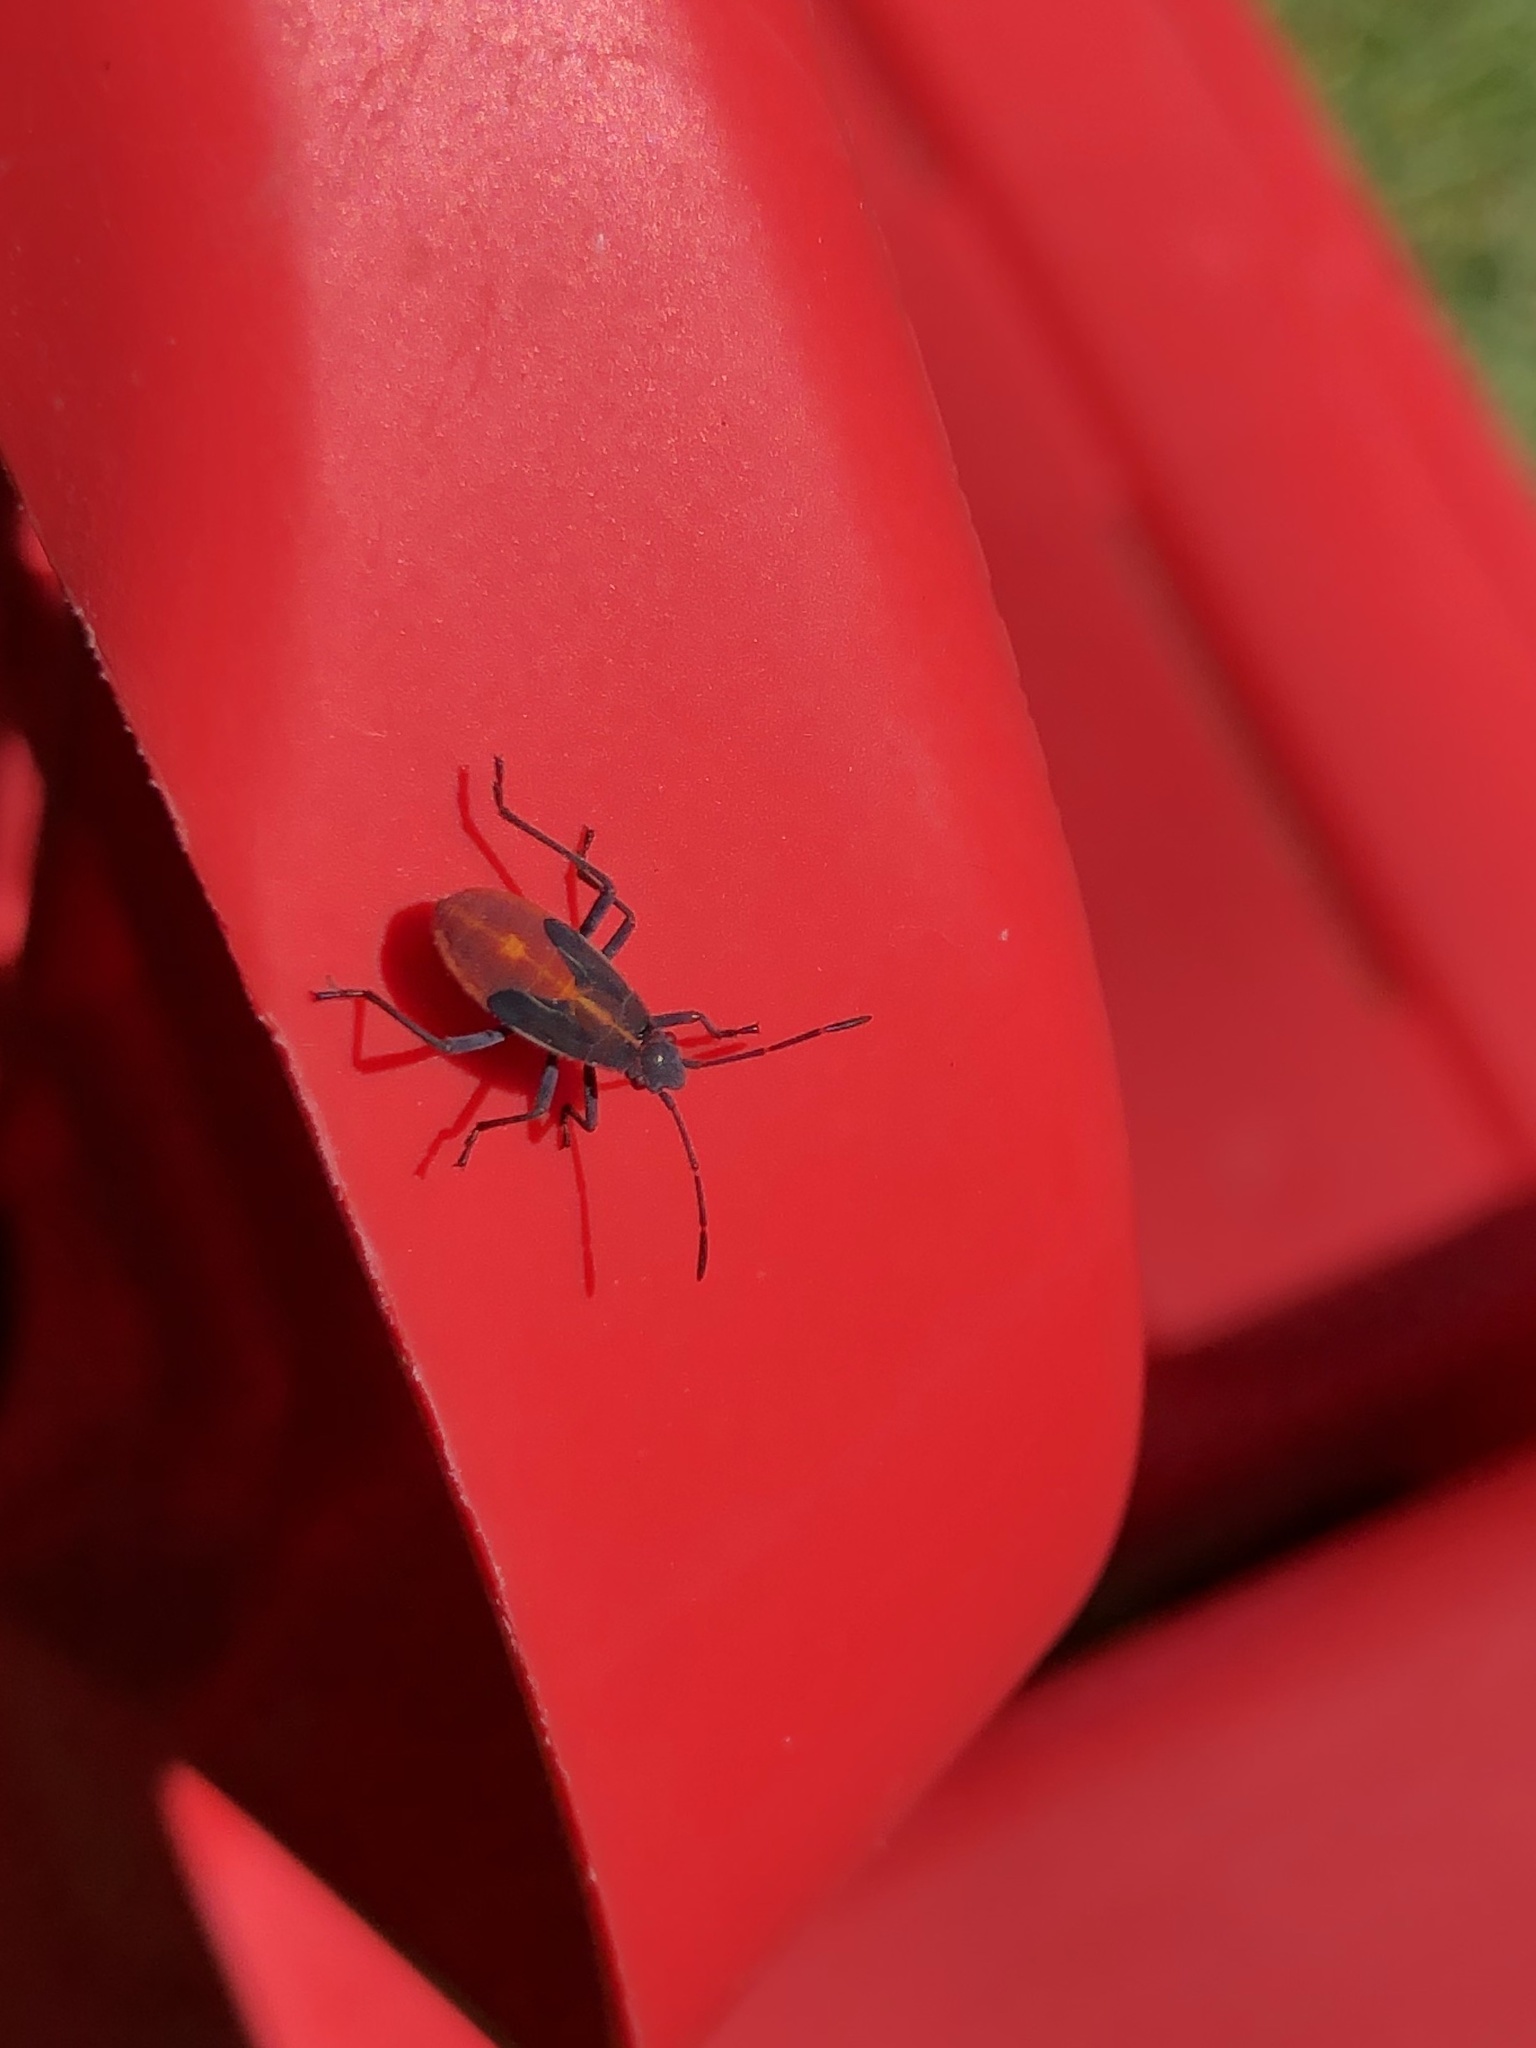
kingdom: Animalia
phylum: Arthropoda
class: Insecta
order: Hemiptera
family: Rhopalidae
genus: Boisea
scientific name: Boisea trivittata
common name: Boxelder bug
